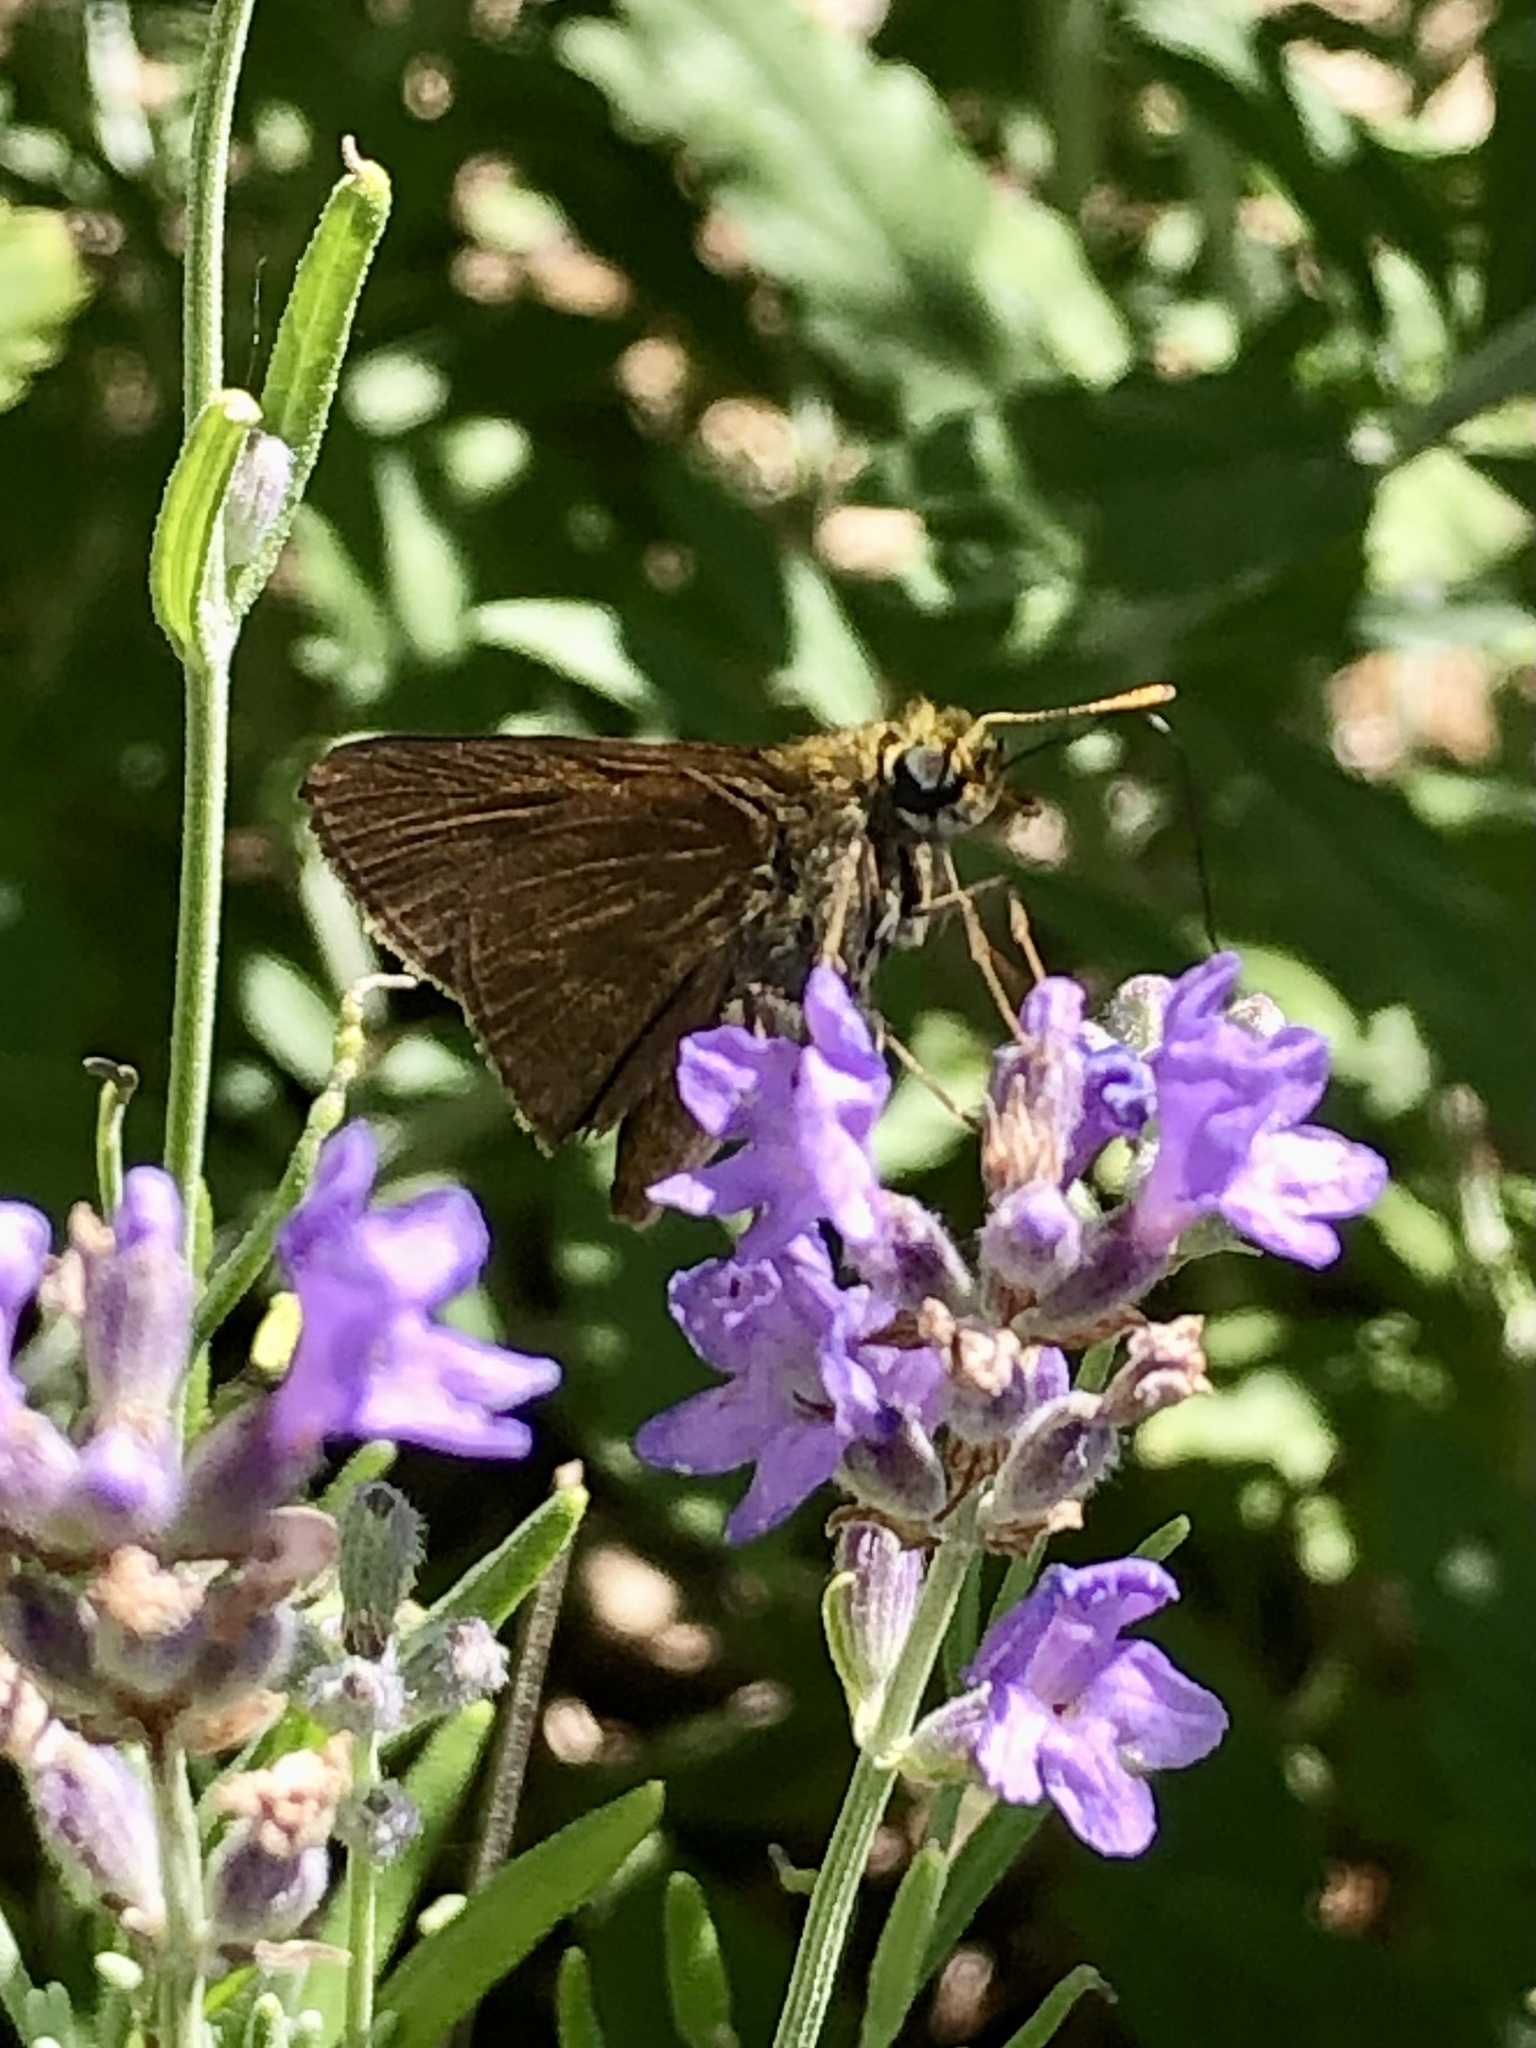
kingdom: Animalia
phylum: Arthropoda
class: Insecta
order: Lepidoptera
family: Hesperiidae
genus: Euphyes
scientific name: Euphyes vestris
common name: Dun skipper
